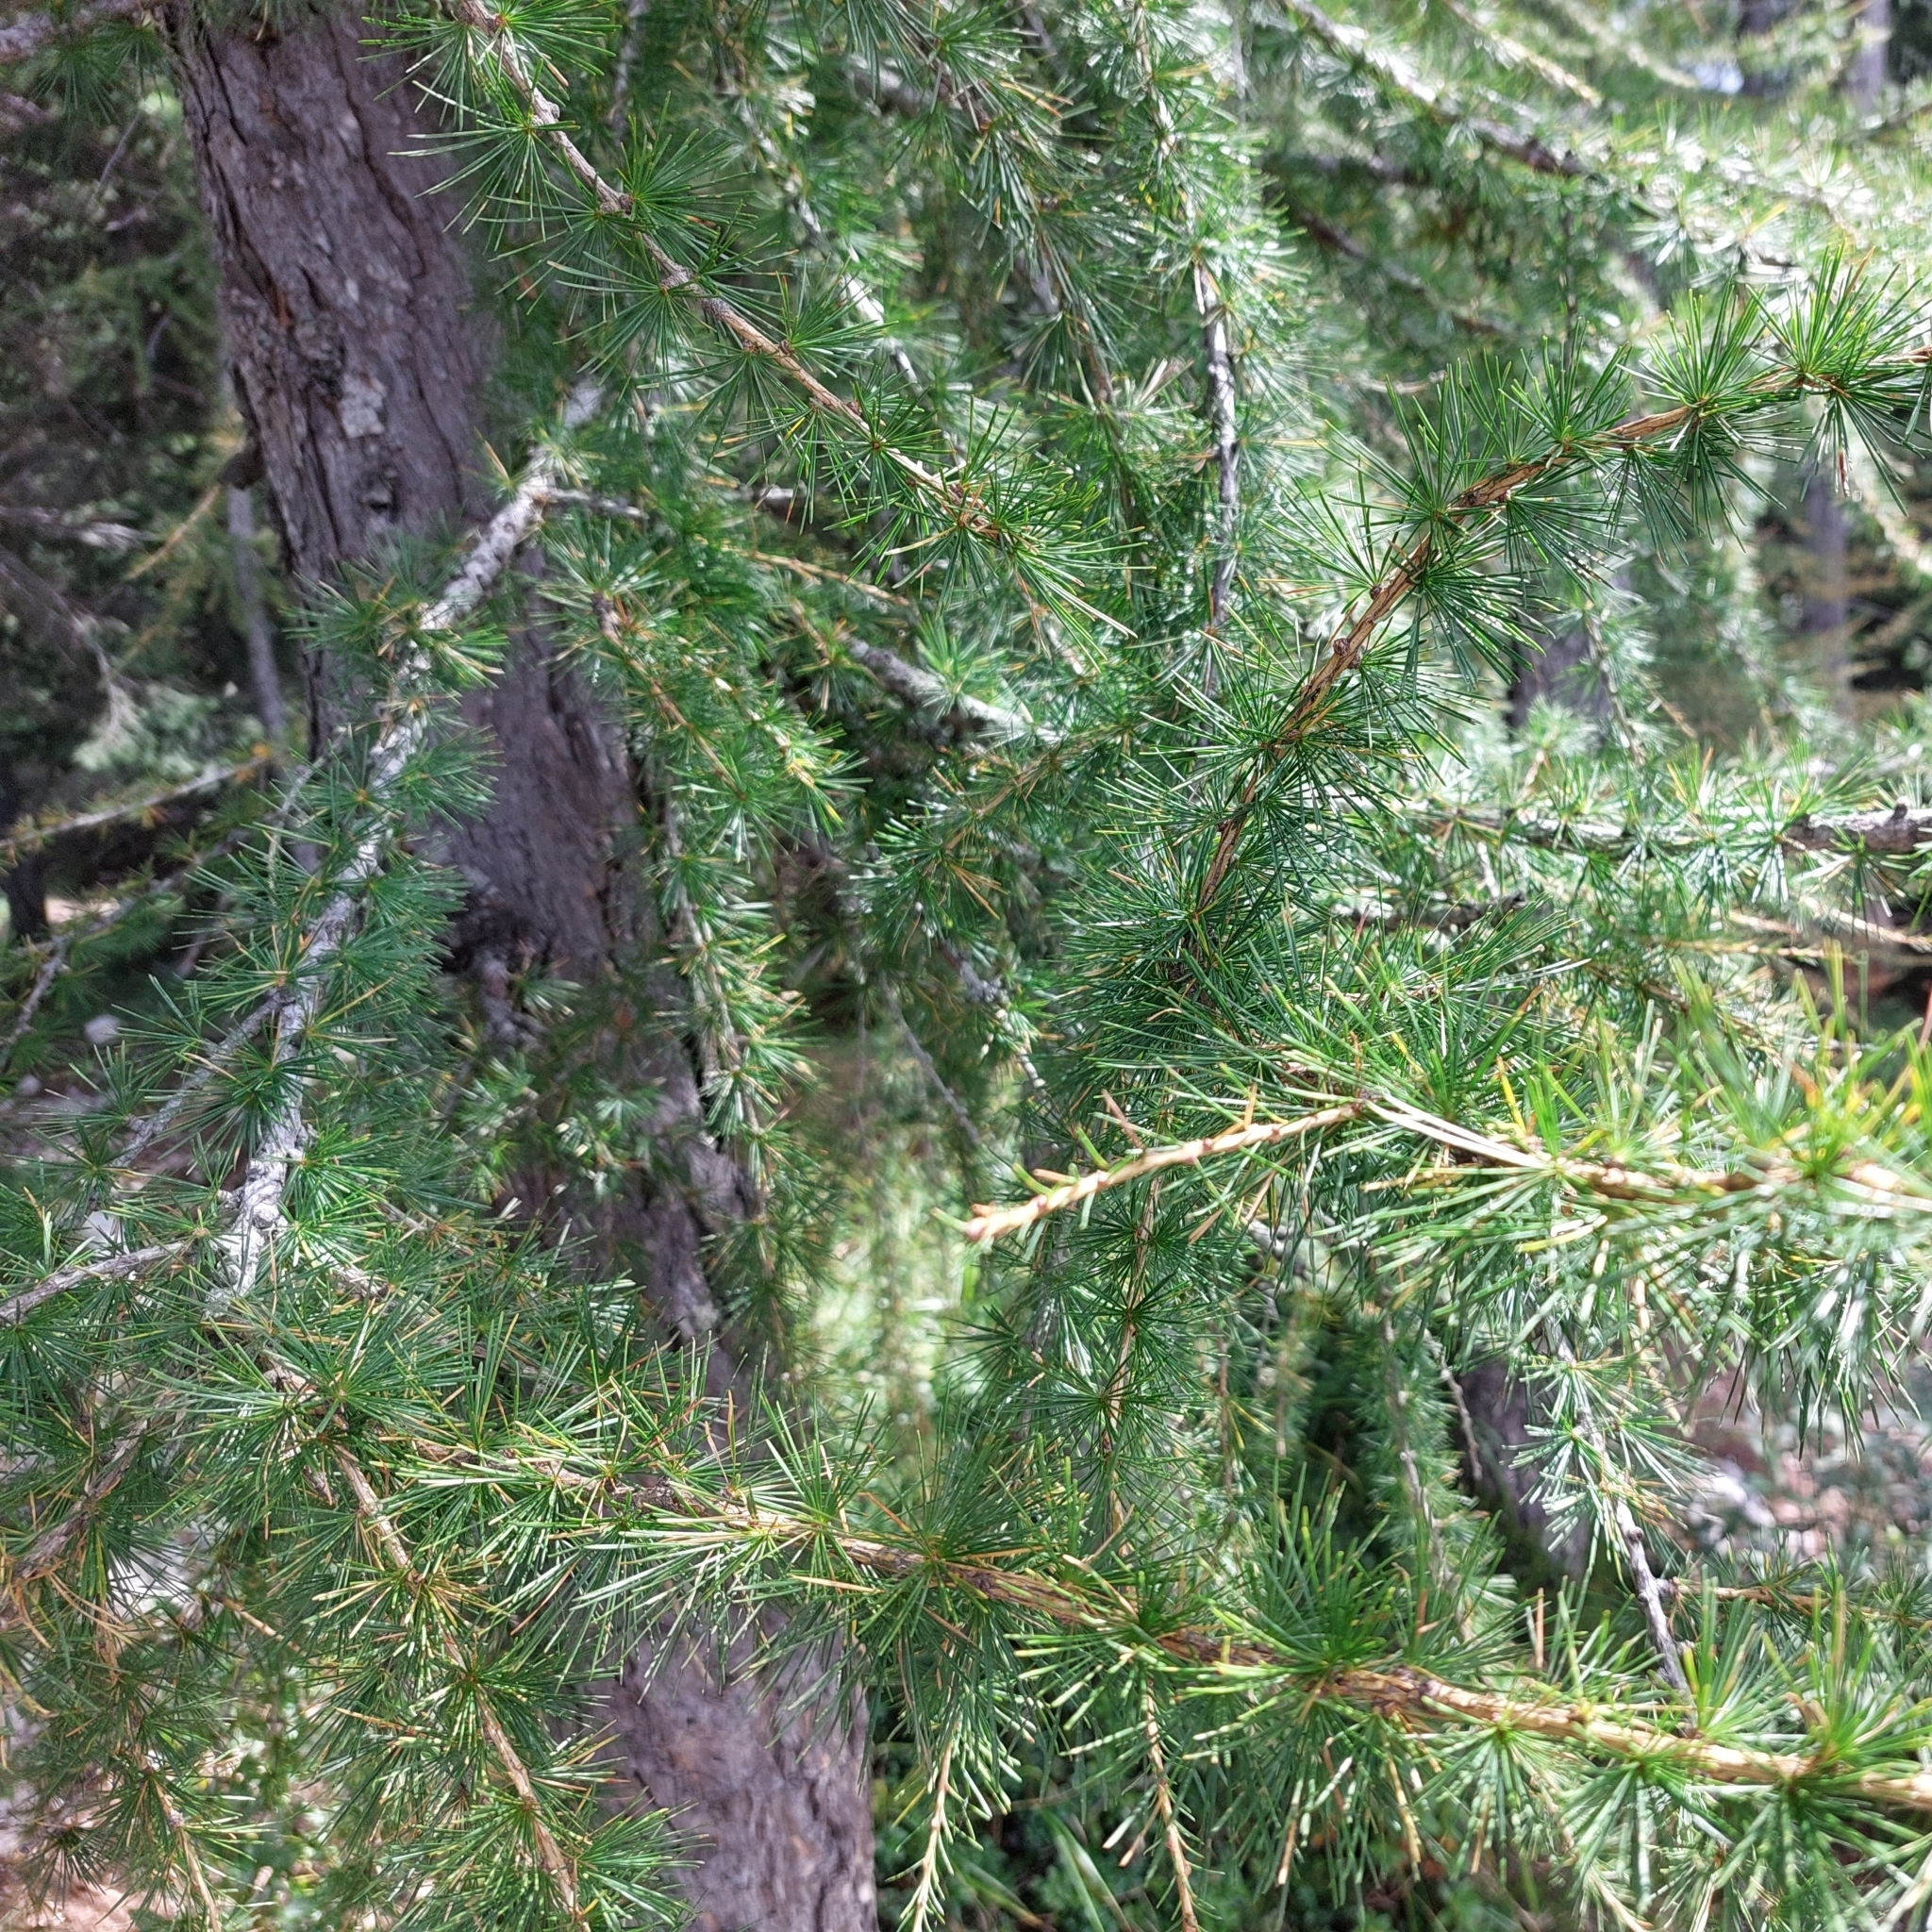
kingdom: Plantae
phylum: Tracheophyta
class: Pinopsida
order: Pinales
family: Pinaceae
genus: Larix
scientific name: Larix decidua
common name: European larch
